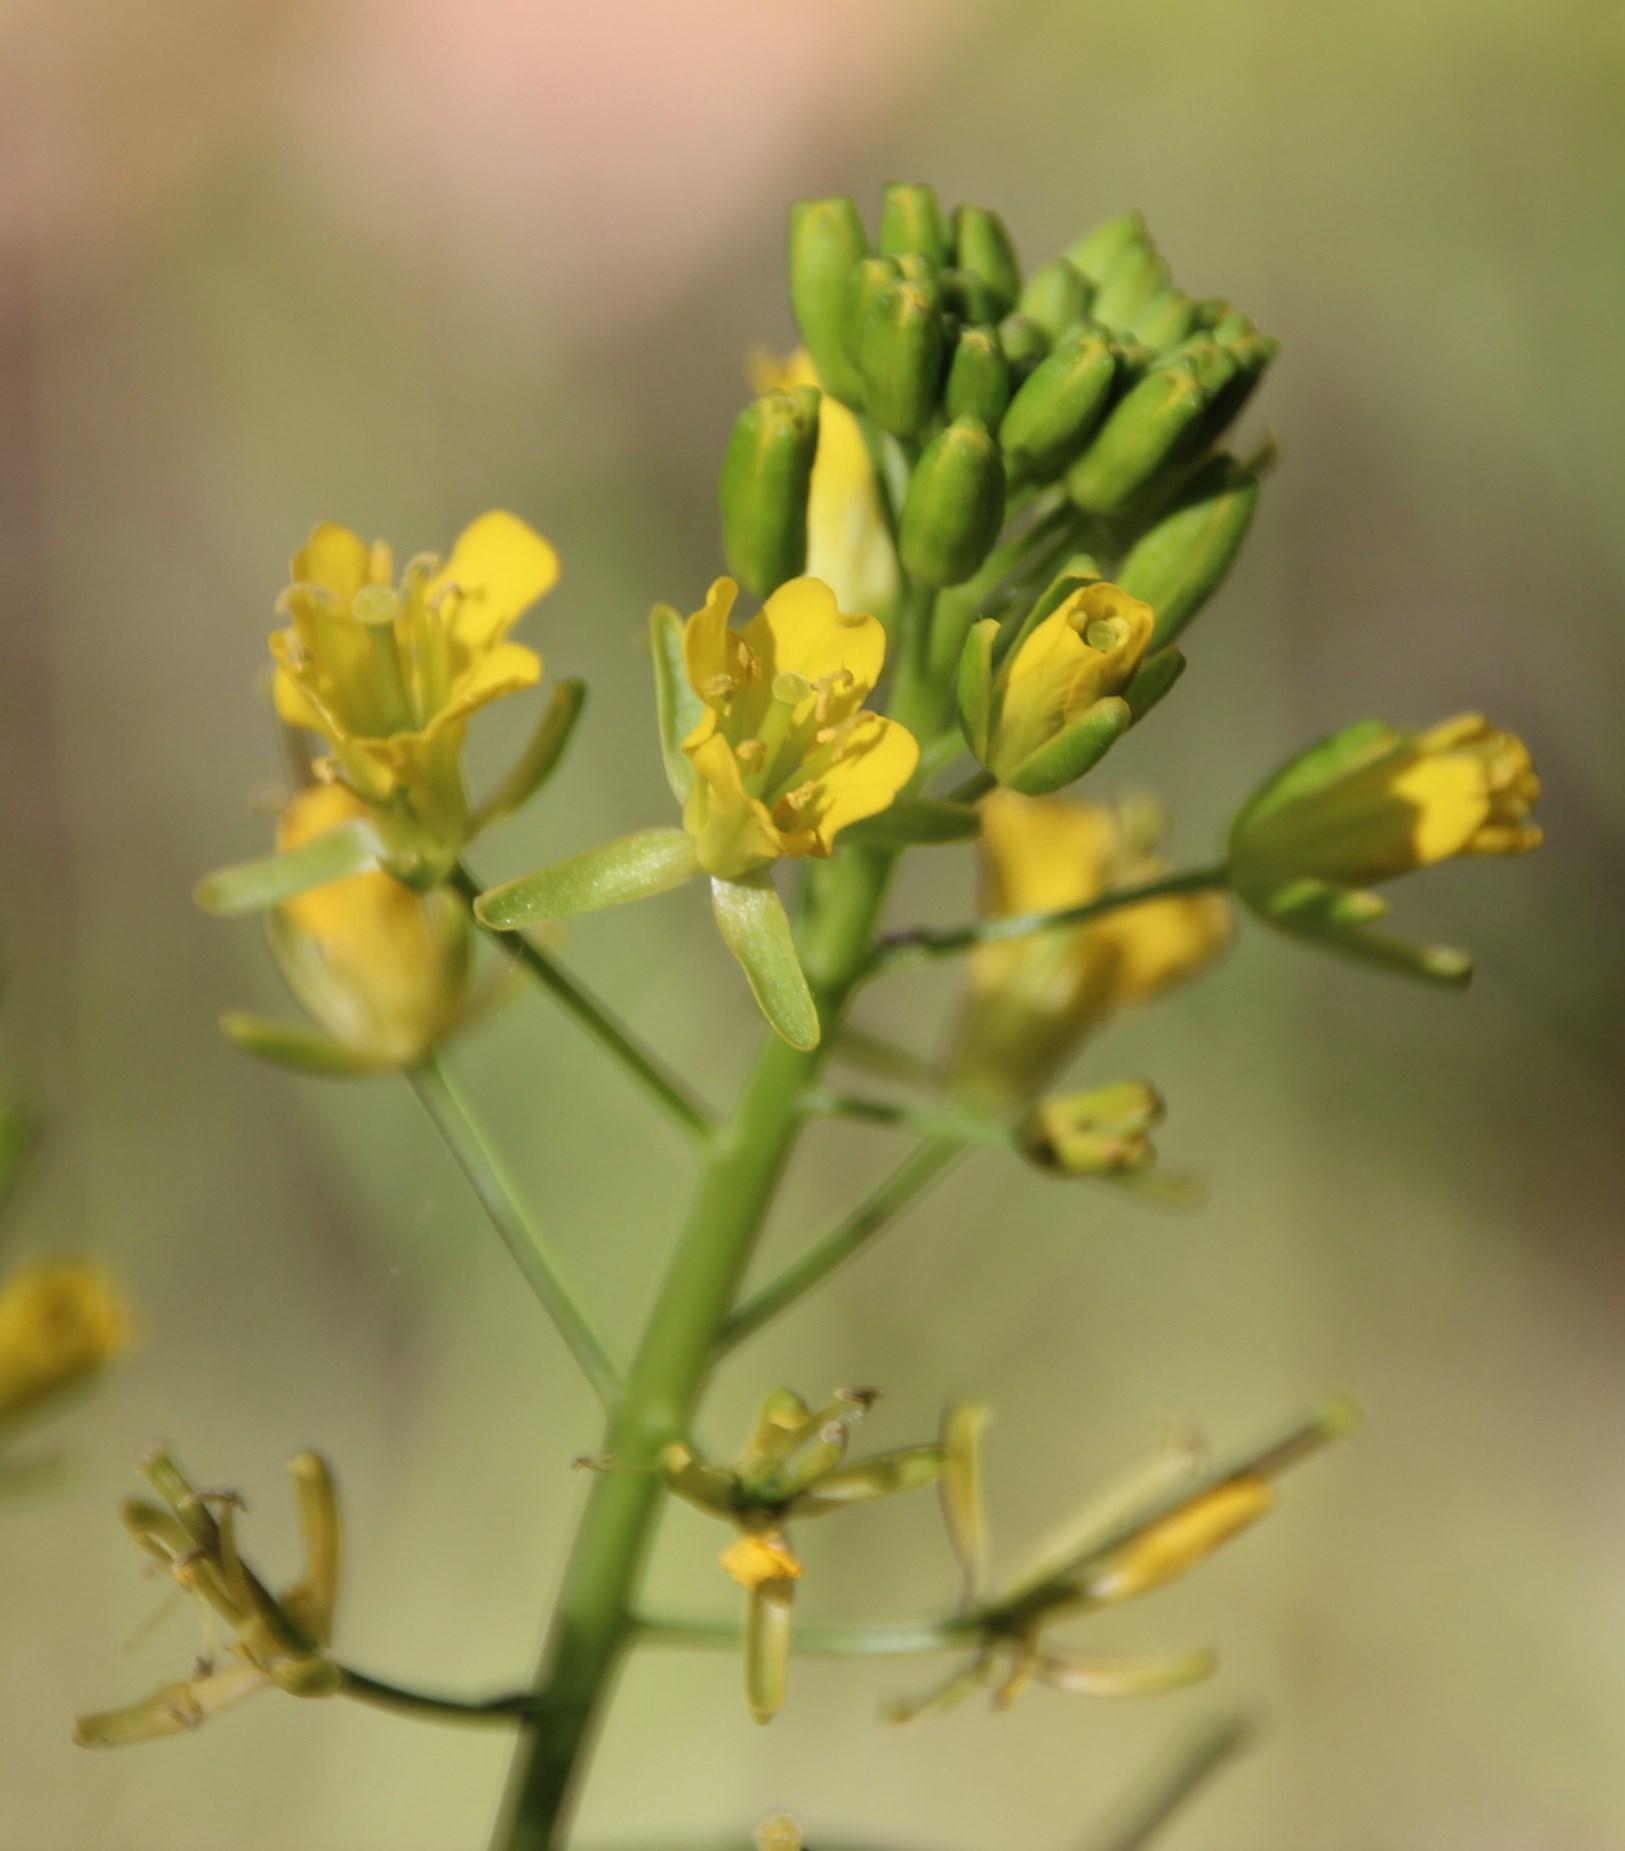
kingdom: Plantae
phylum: Tracheophyta
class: Magnoliopsida
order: Brassicales
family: Brassicaceae
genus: Brassica
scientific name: Brassica rapa
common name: Field mustard
